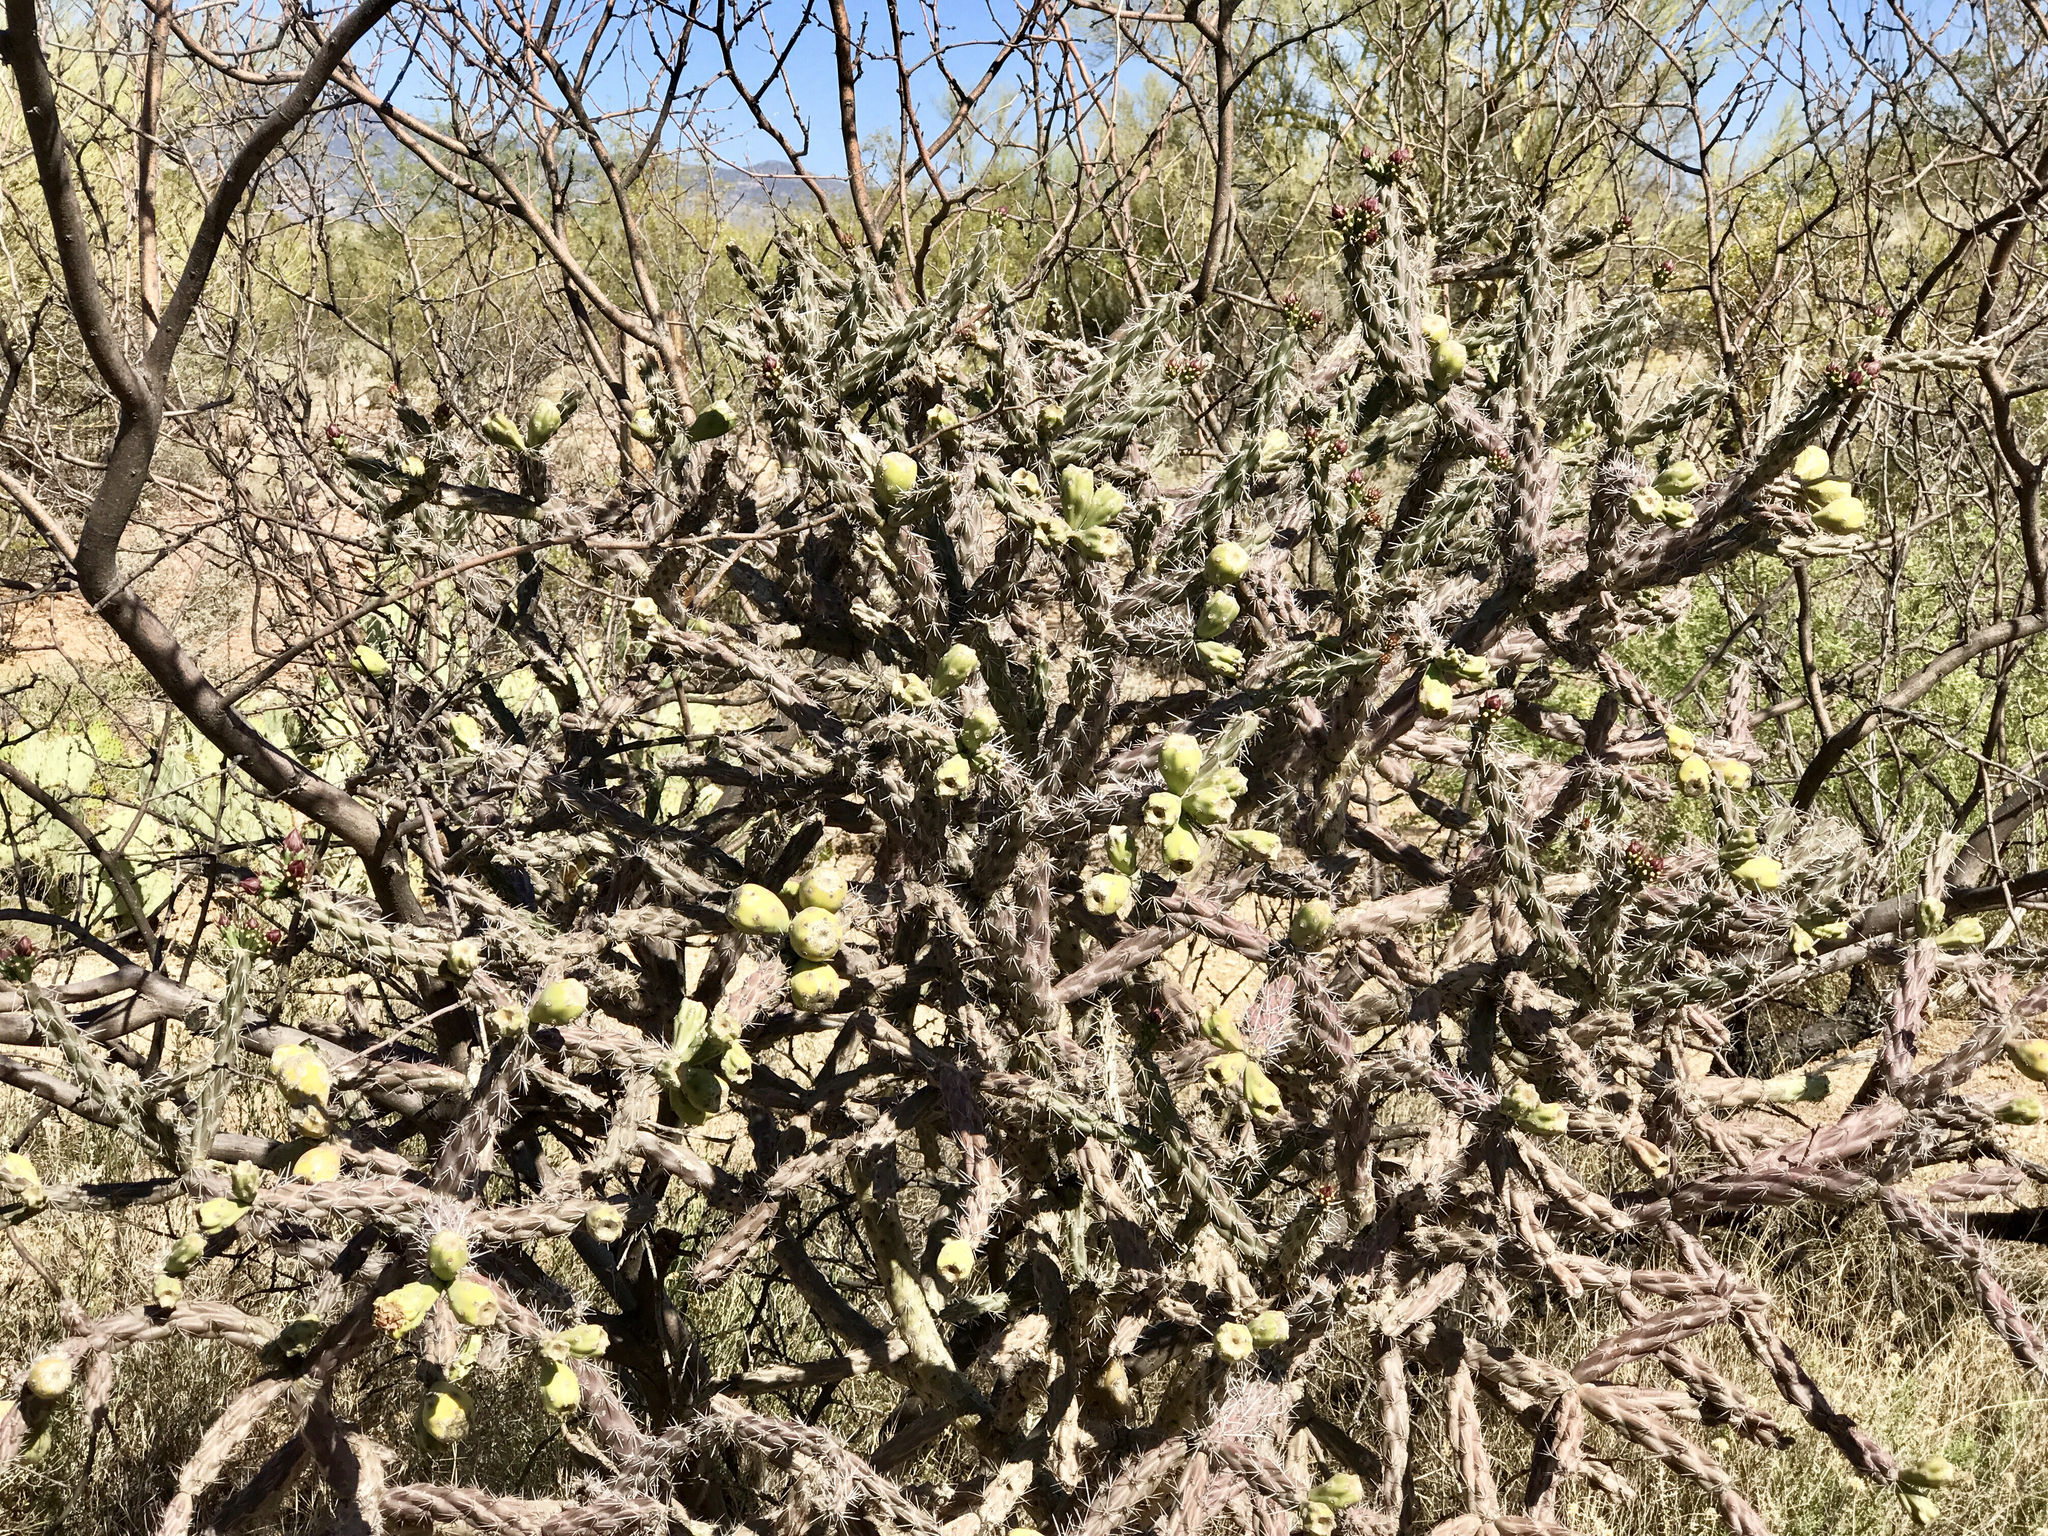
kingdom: Plantae
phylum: Tracheophyta
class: Magnoliopsida
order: Caryophyllales
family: Cactaceae
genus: Cylindropuntia
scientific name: Cylindropuntia thurberi
